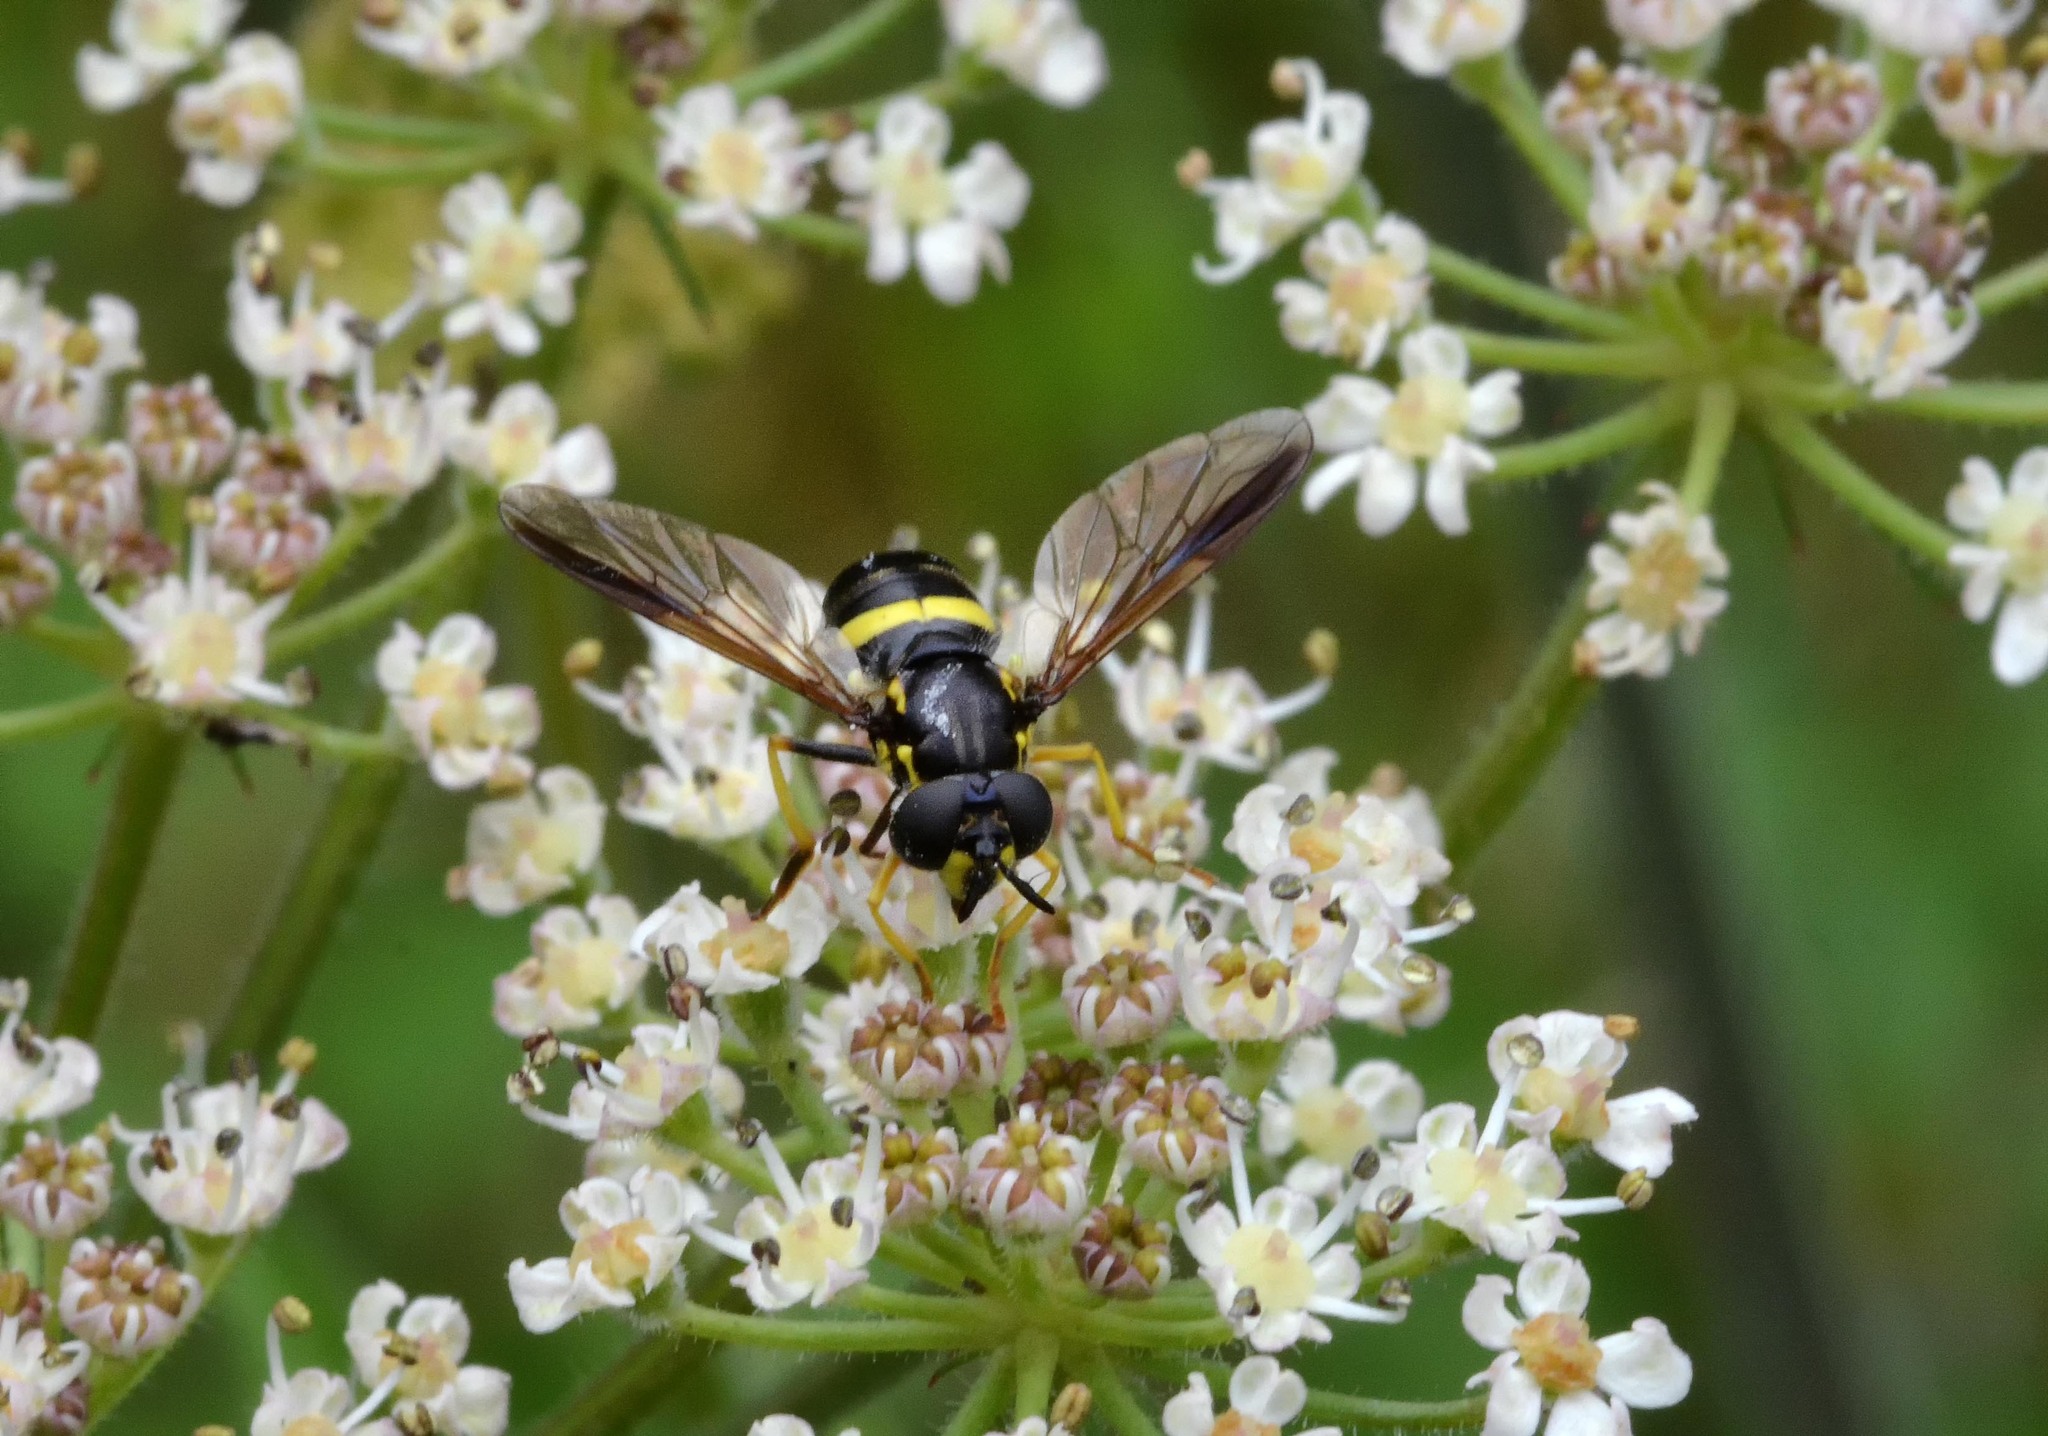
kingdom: Animalia
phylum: Arthropoda
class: Insecta
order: Diptera
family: Syrphidae
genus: Chrysotoxum
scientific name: Chrysotoxum bicincta
